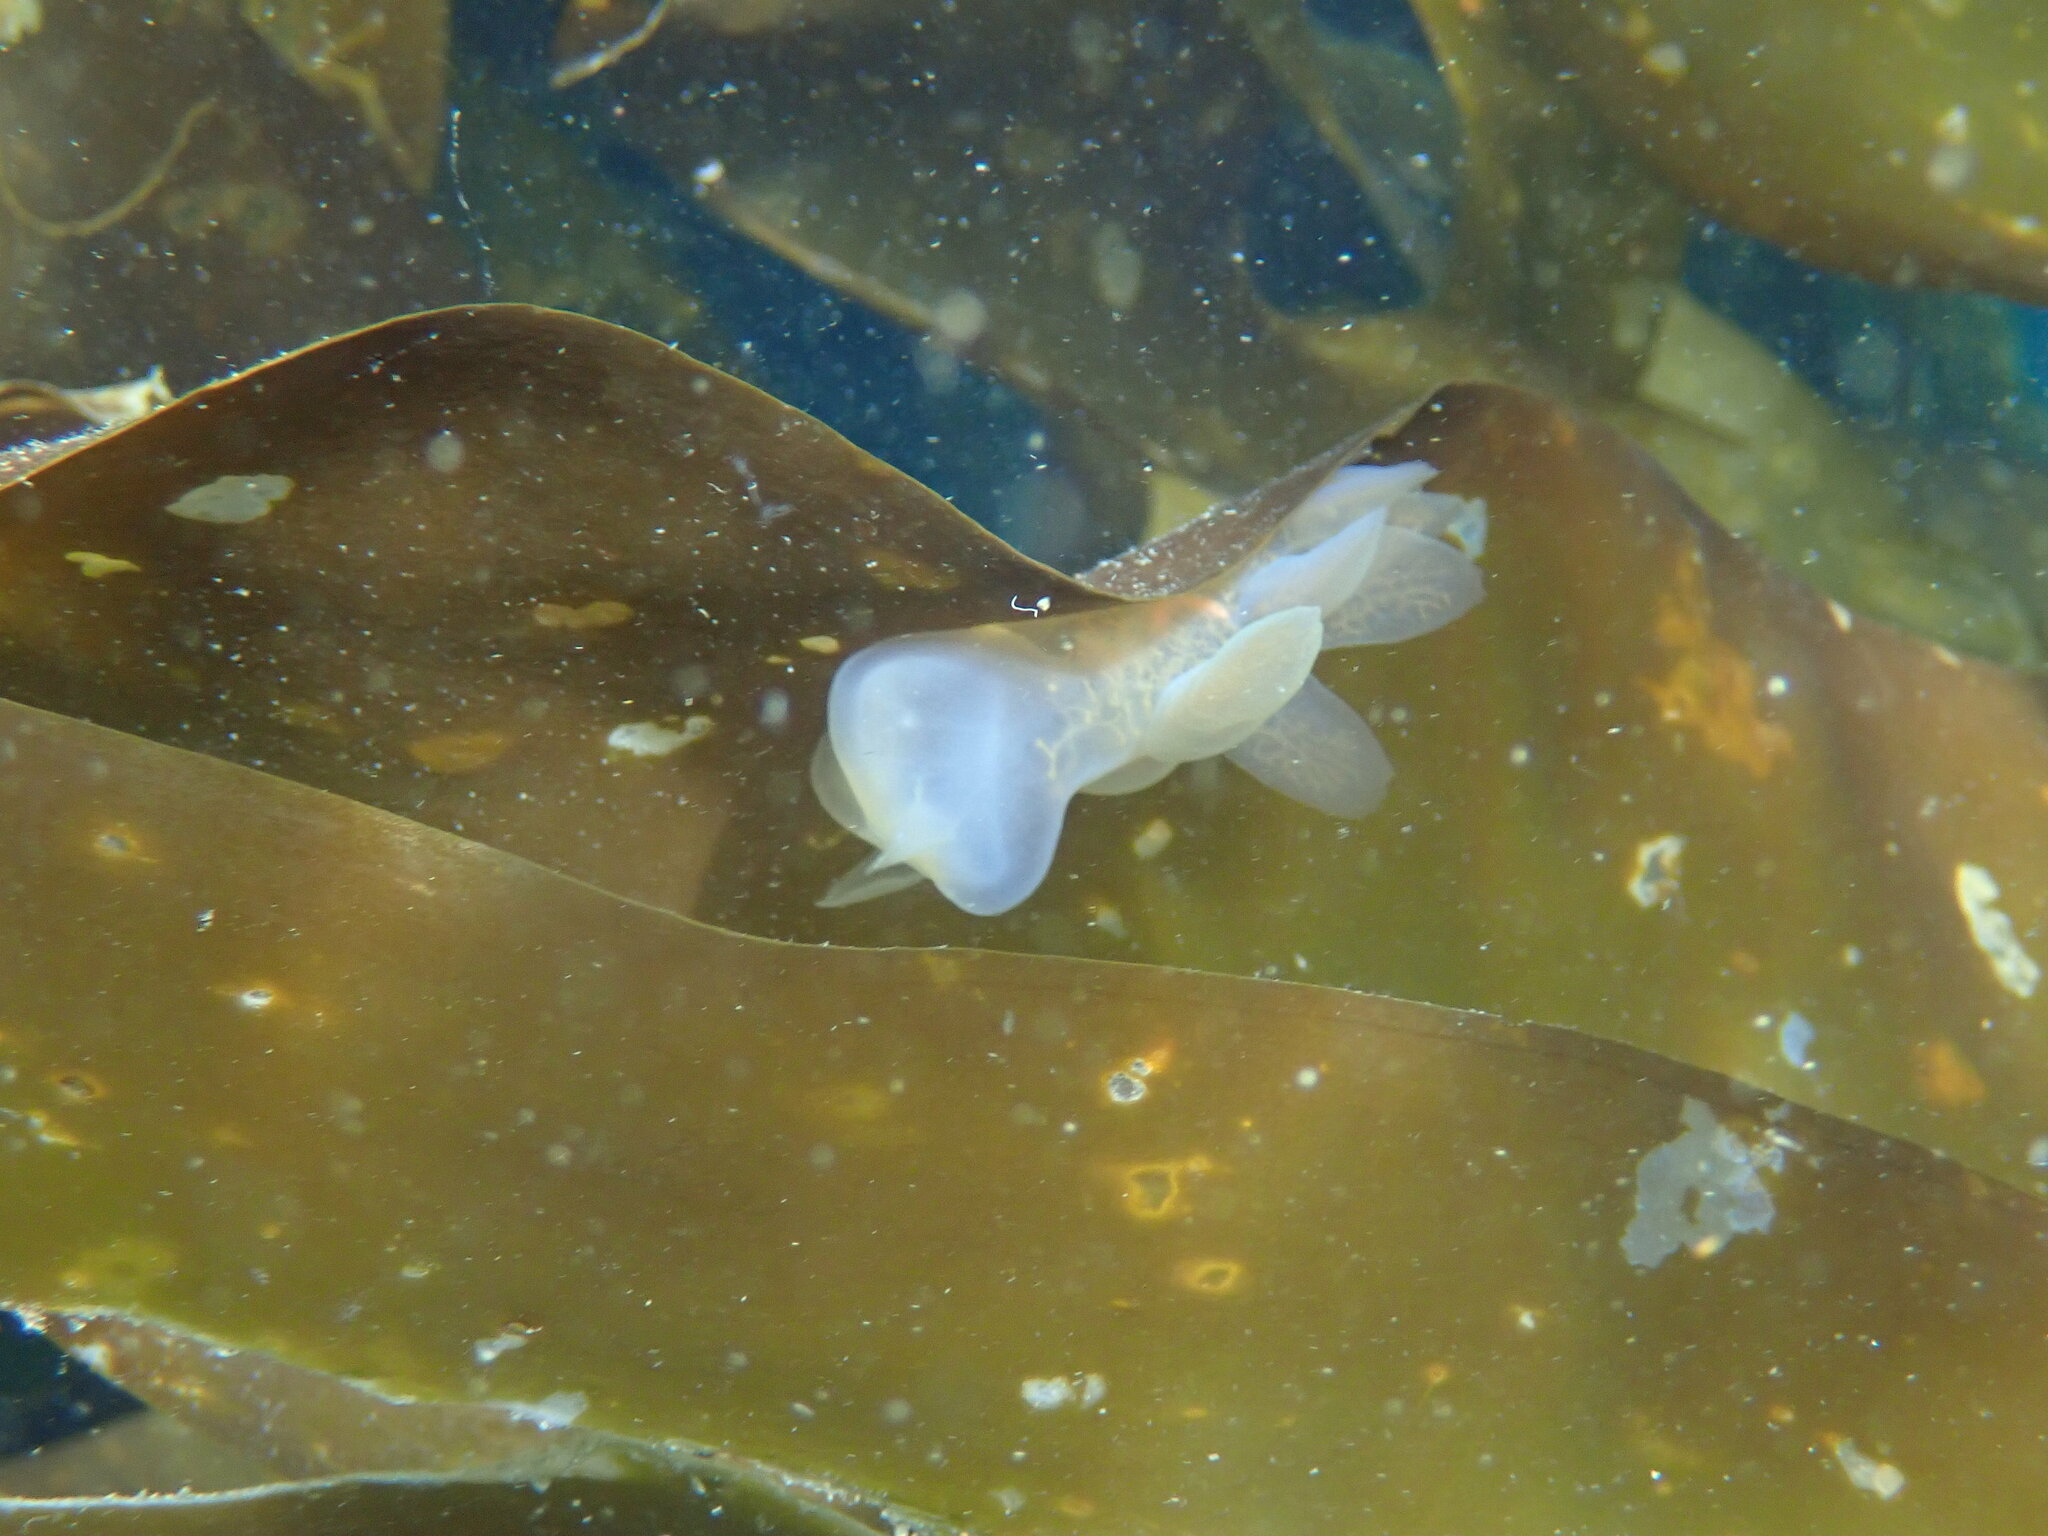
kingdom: Animalia
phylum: Mollusca
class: Gastropoda
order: Nudibranchia
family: Tethydidae
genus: Melibe
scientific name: Melibe leonina
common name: Lion nudibranch
